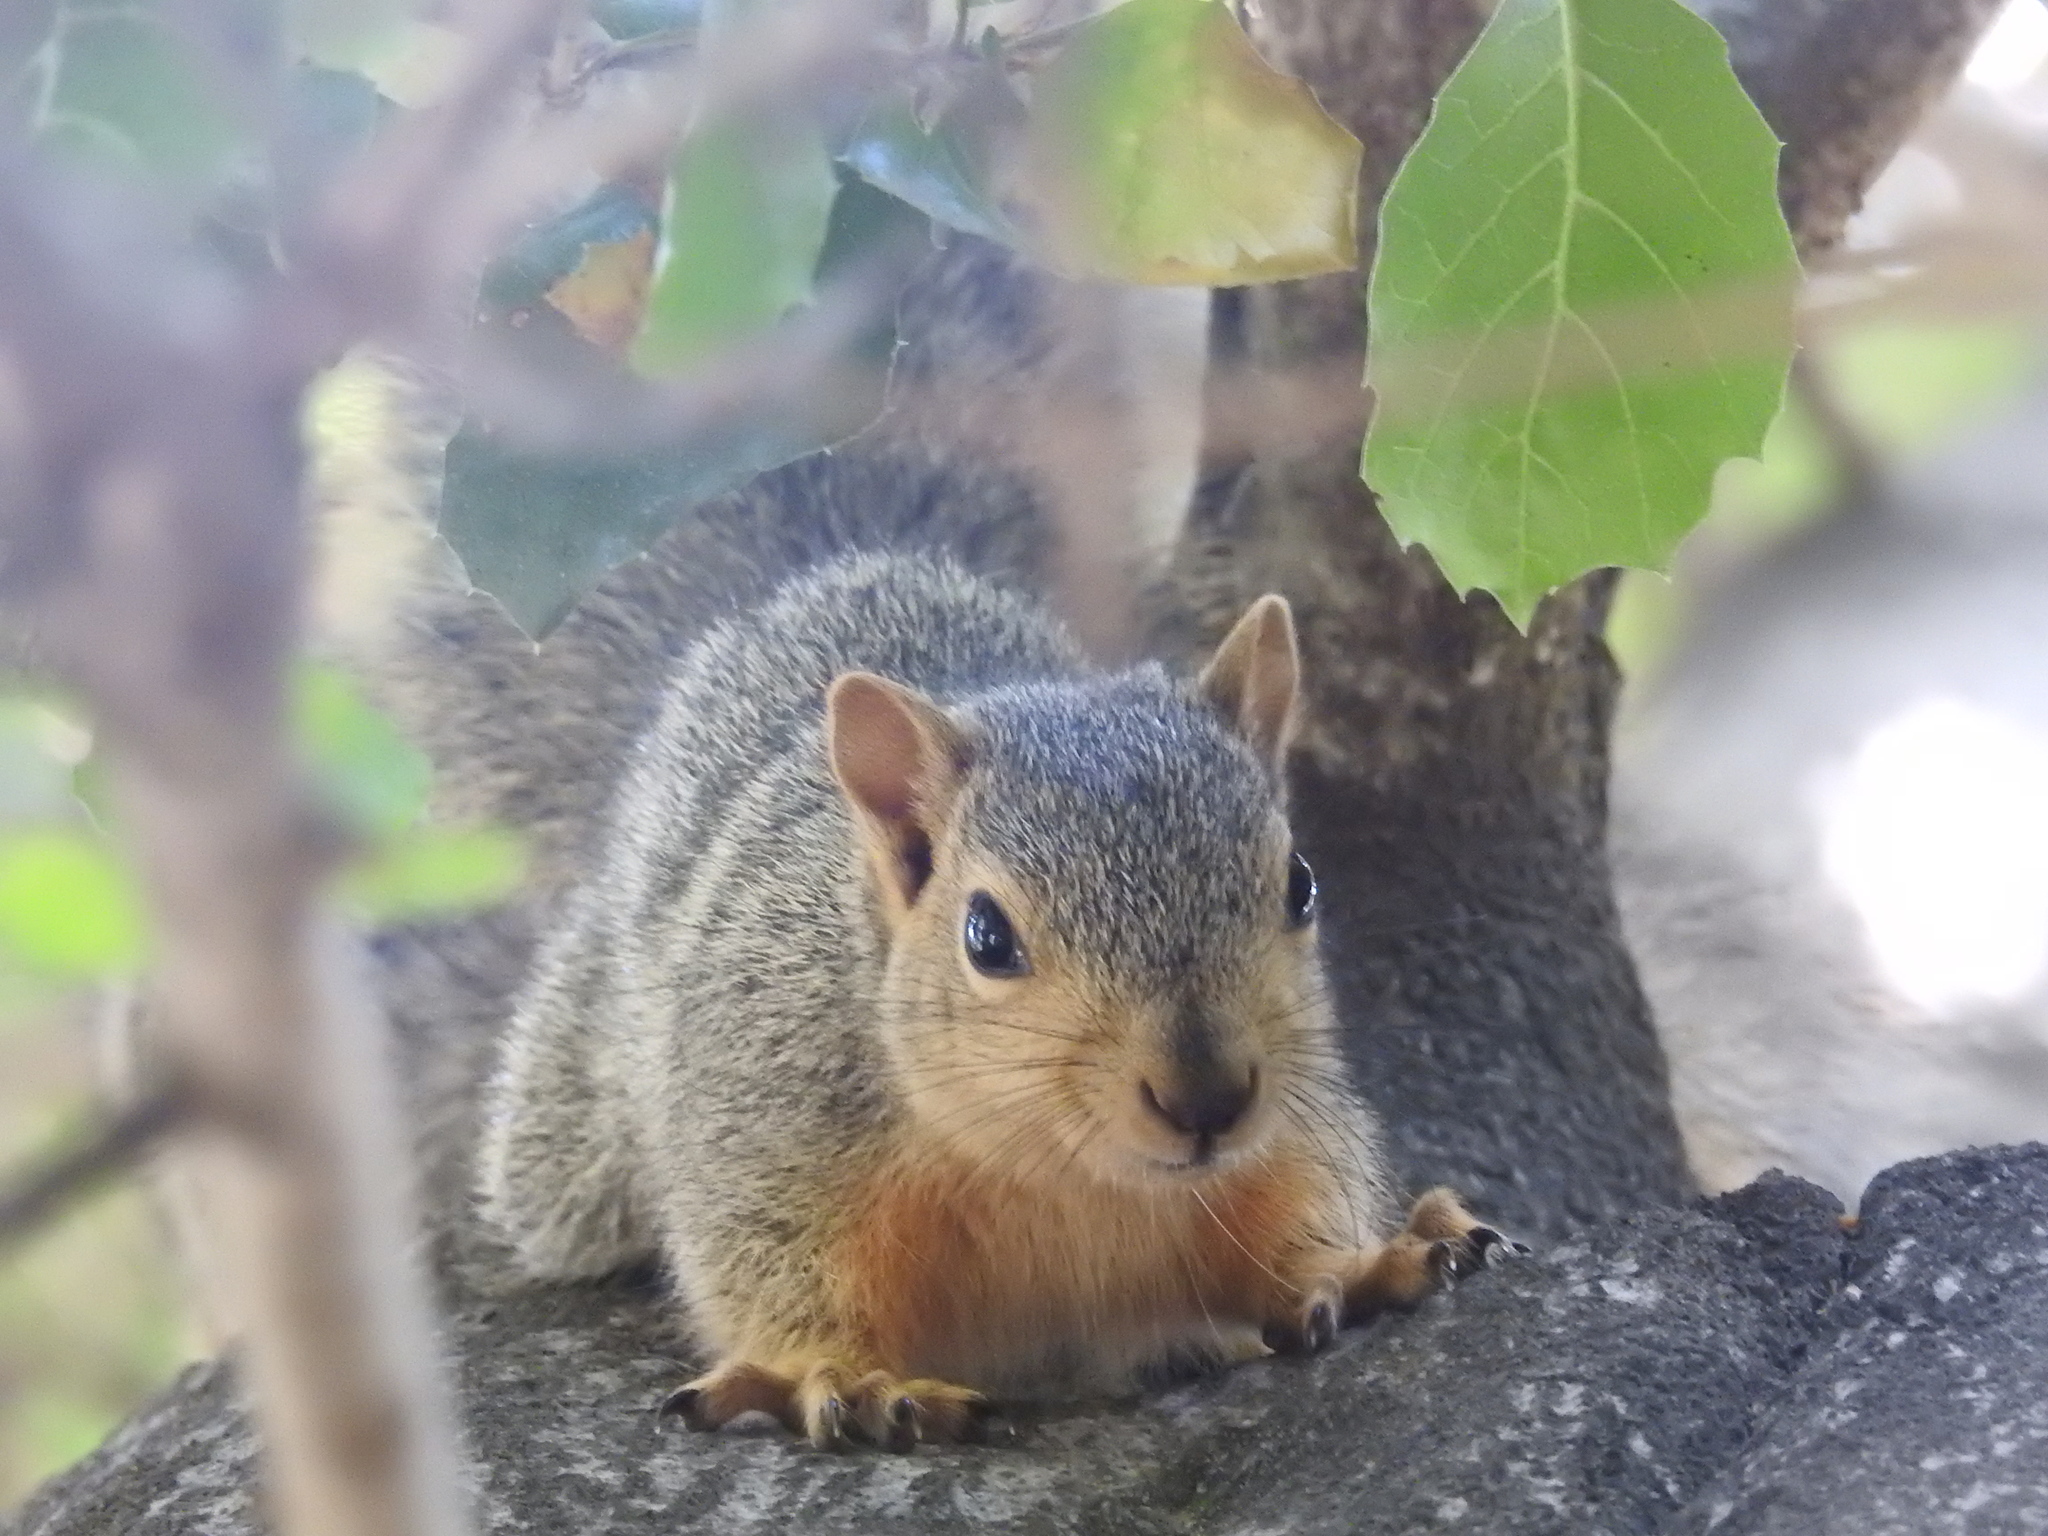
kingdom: Animalia
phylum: Chordata
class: Mammalia
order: Rodentia
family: Sciuridae
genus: Sciurus
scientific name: Sciurus niger
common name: Fox squirrel
